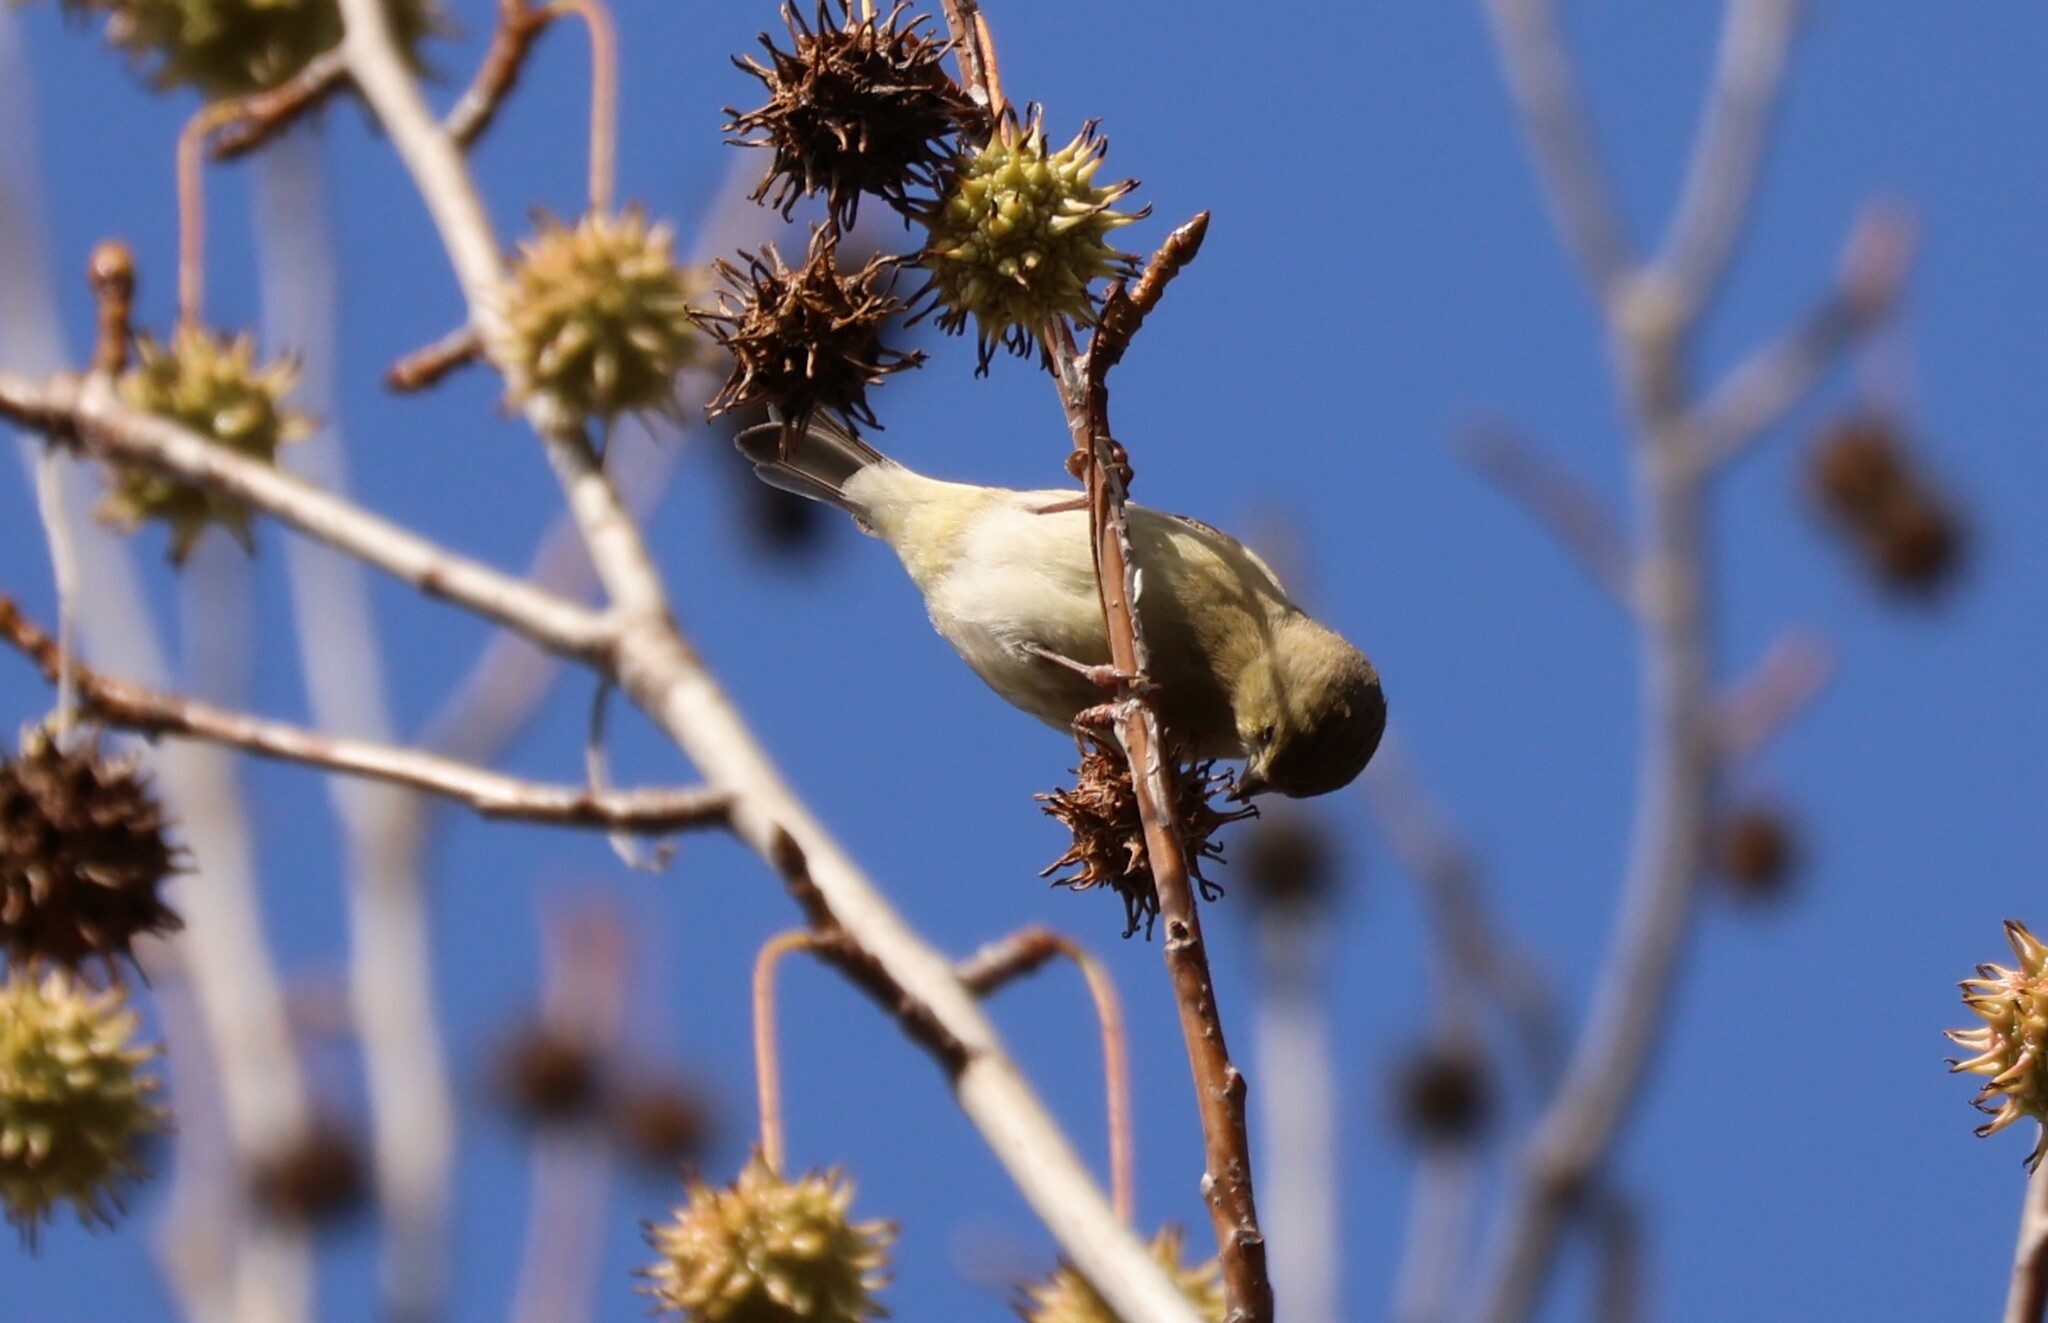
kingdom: Animalia
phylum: Chordata
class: Aves
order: Passeriformes
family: Fringillidae
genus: Spinus
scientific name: Spinus psaltria
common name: Lesser goldfinch
